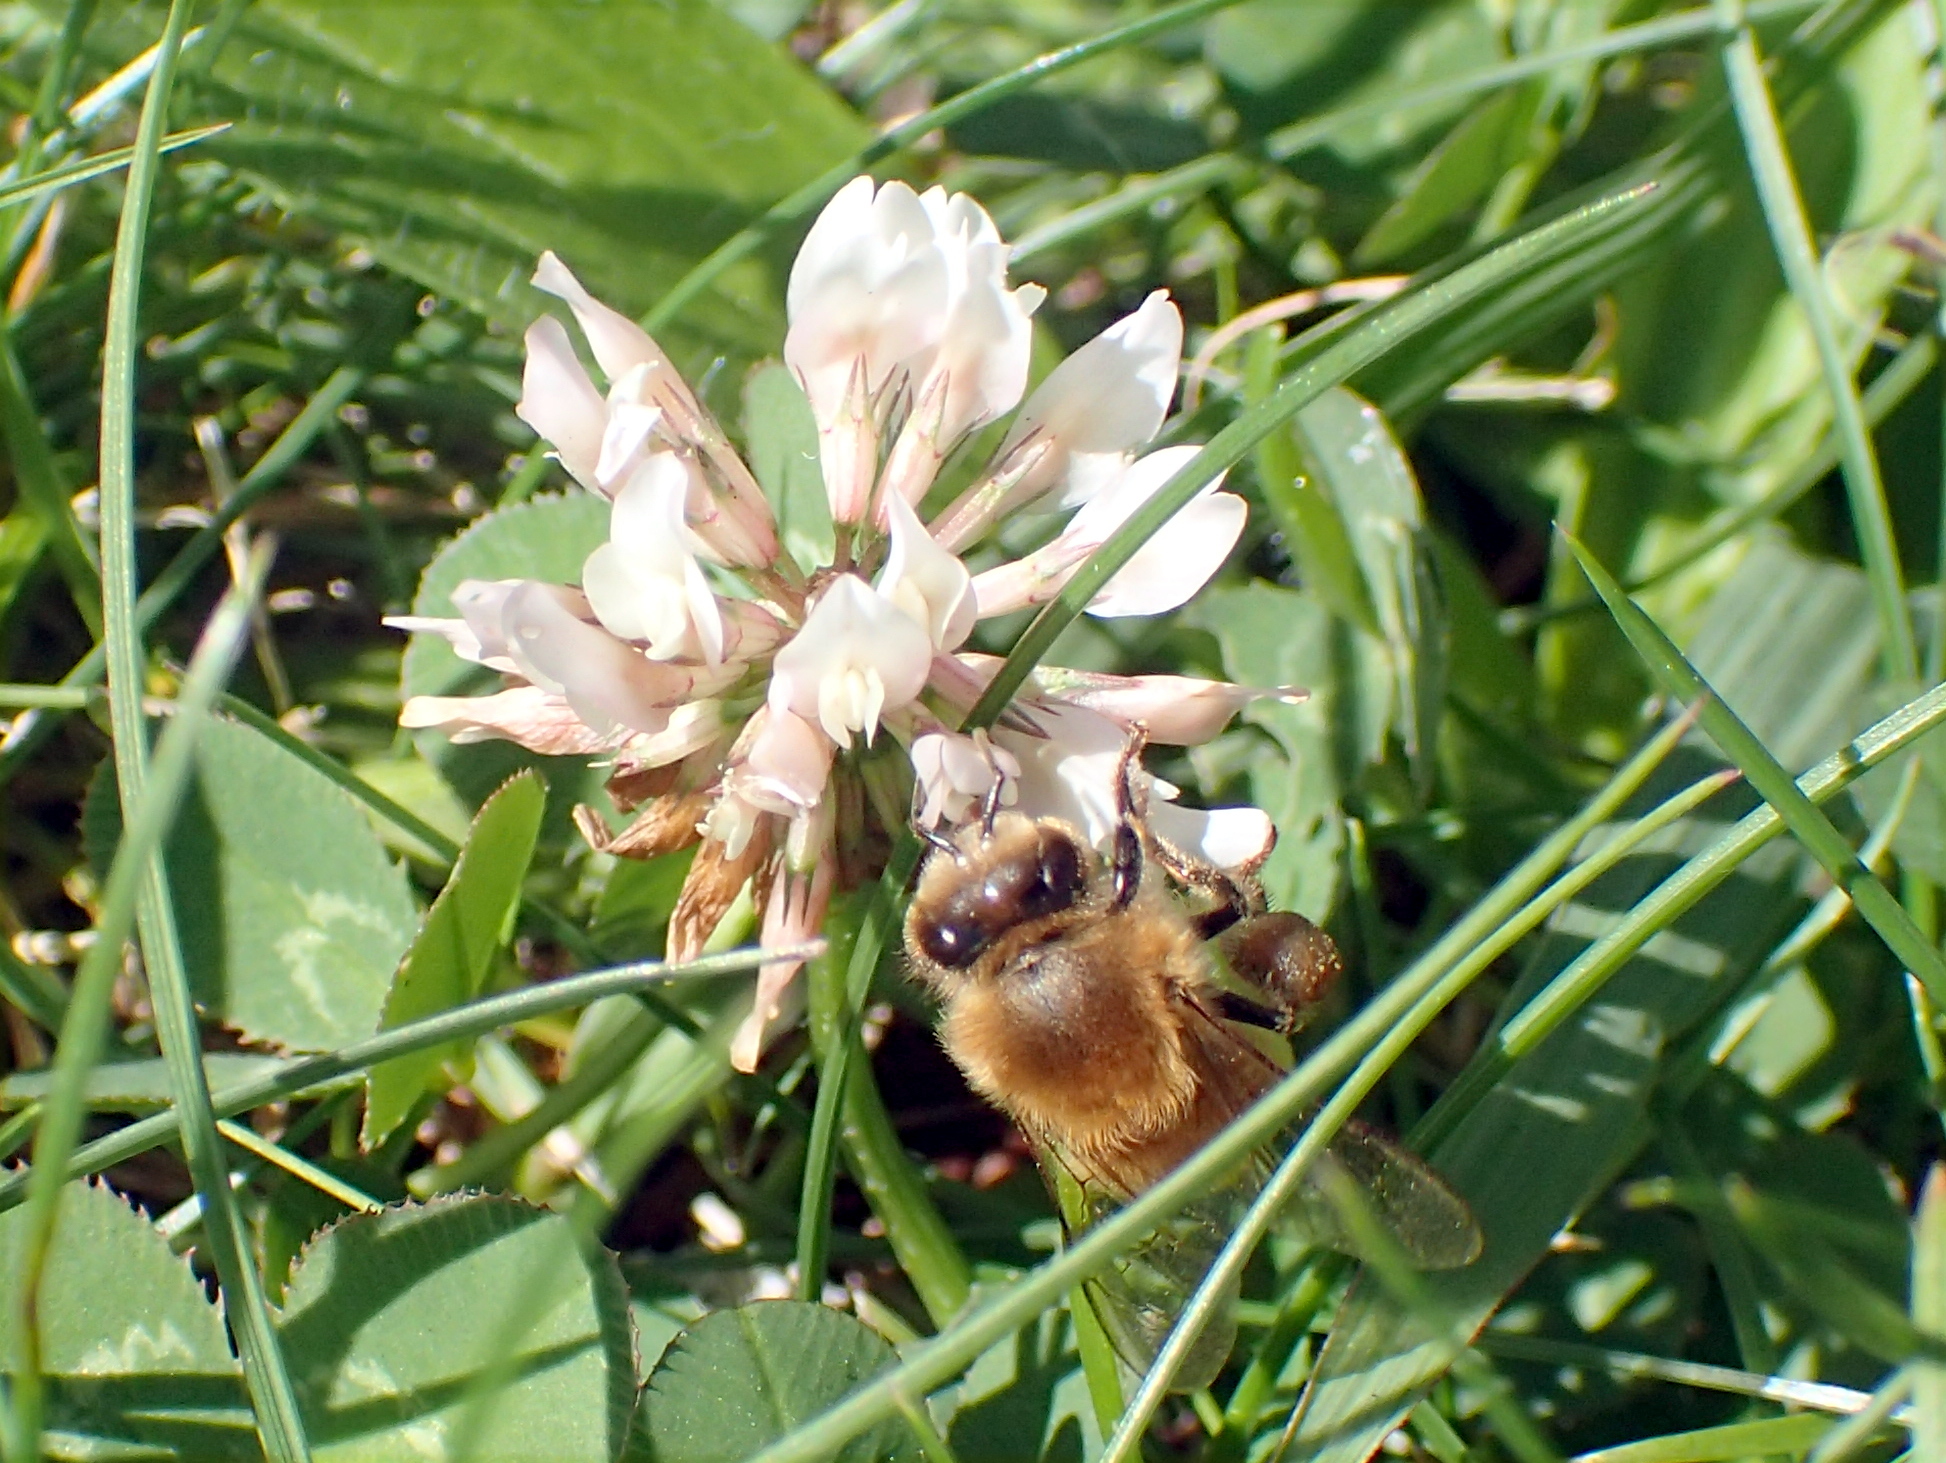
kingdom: Animalia
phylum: Arthropoda
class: Insecta
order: Hymenoptera
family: Apidae
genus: Apis
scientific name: Apis mellifera
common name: Honey bee
